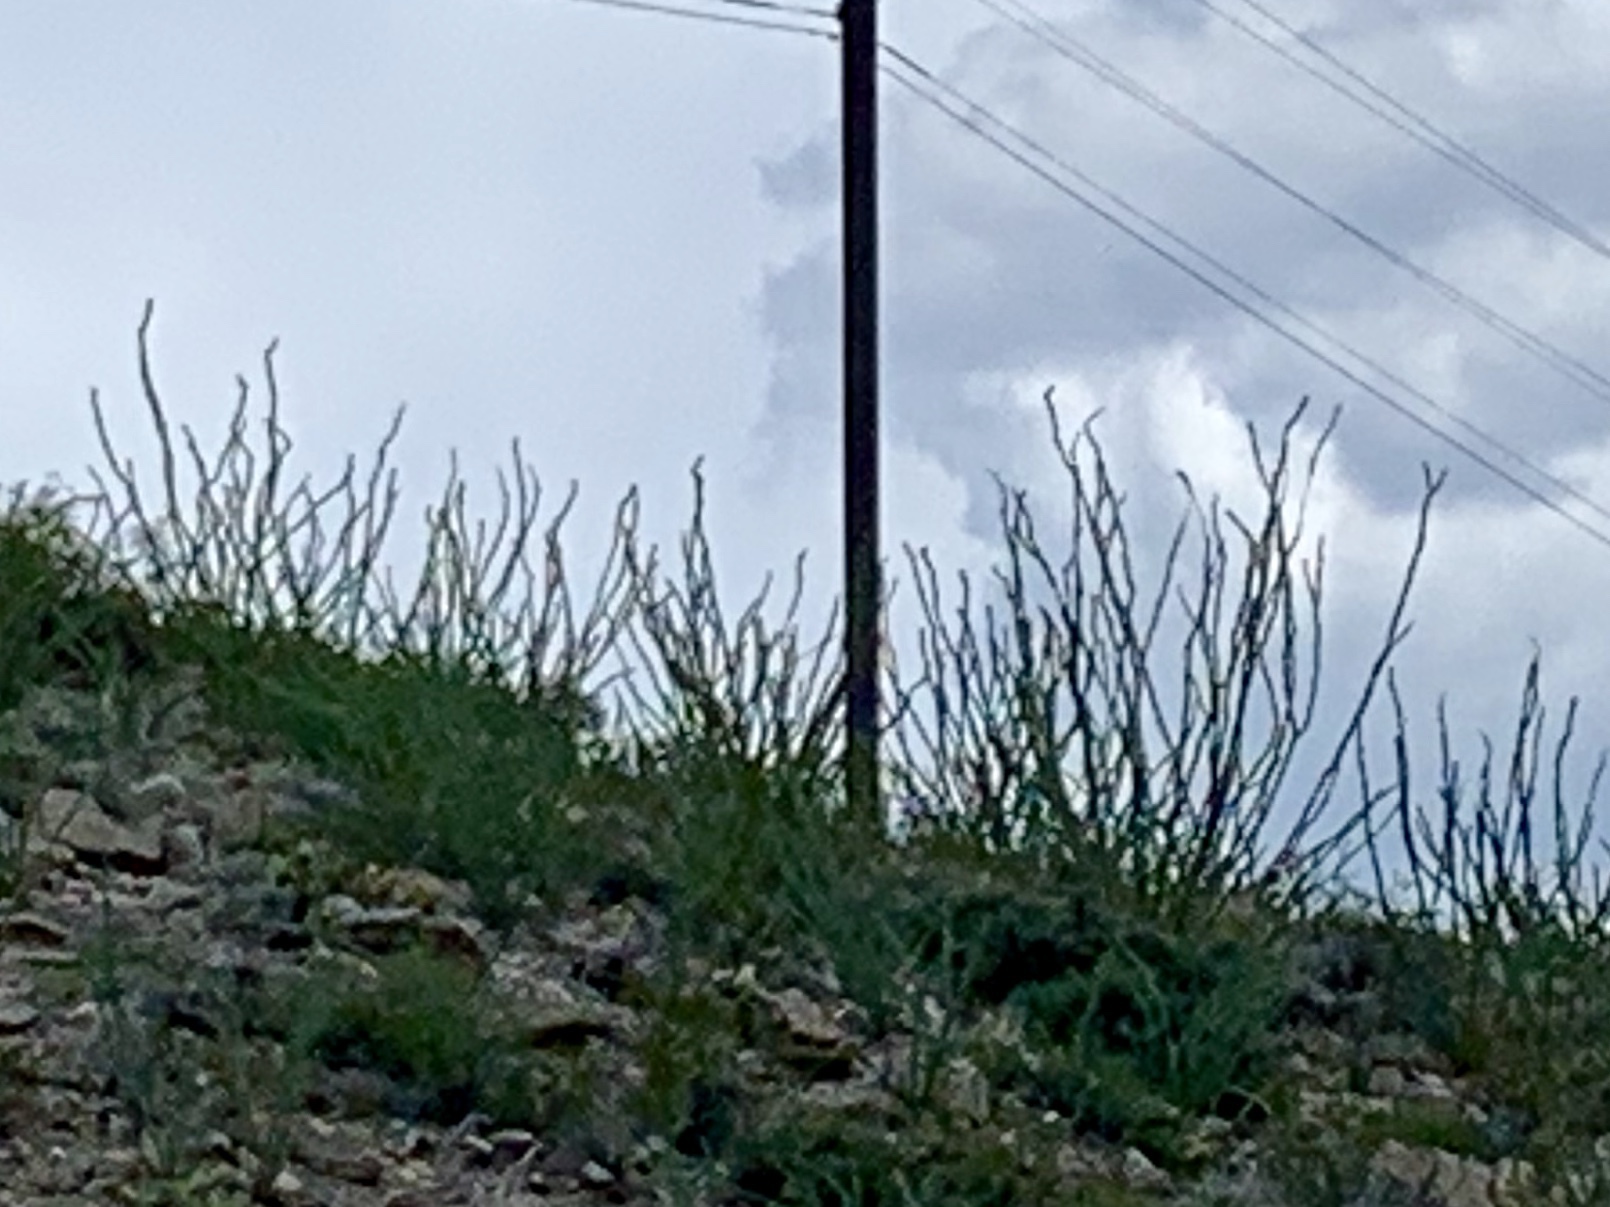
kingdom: Plantae
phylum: Tracheophyta
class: Magnoliopsida
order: Ericales
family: Fouquieriaceae
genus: Fouquieria
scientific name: Fouquieria splendens
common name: Vine-cactus
